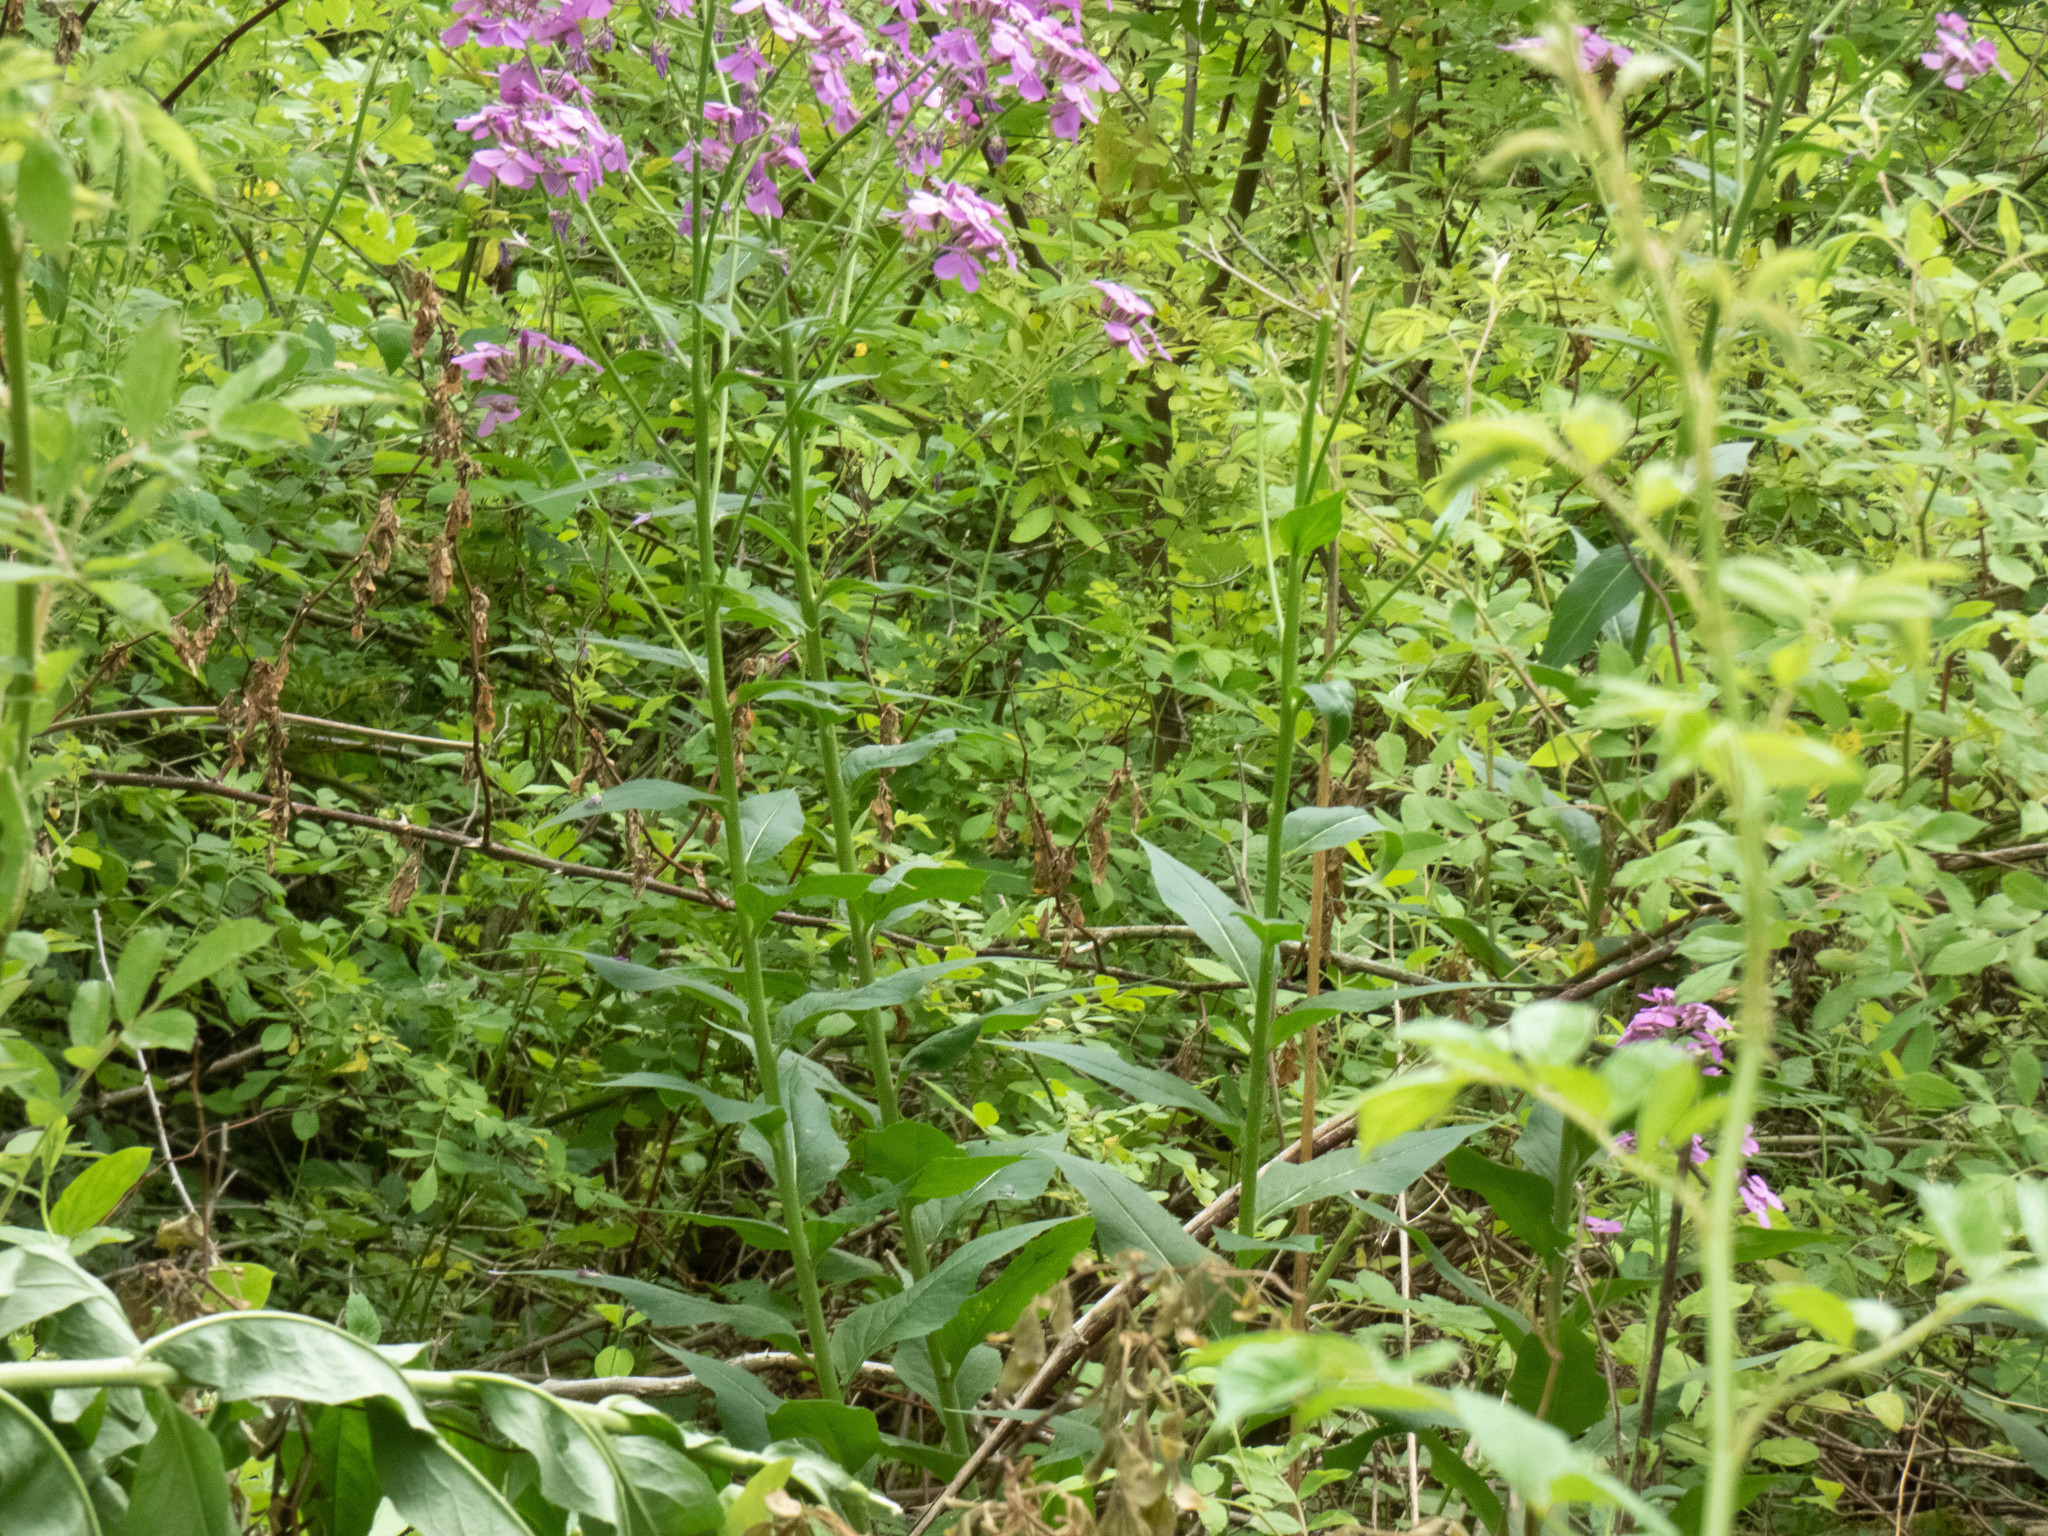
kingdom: Plantae
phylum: Tracheophyta
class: Magnoliopsida
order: Brassicales
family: Brassicaceae
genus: Hesperis
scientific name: Hesperis matronalis
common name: Dame's-violet
